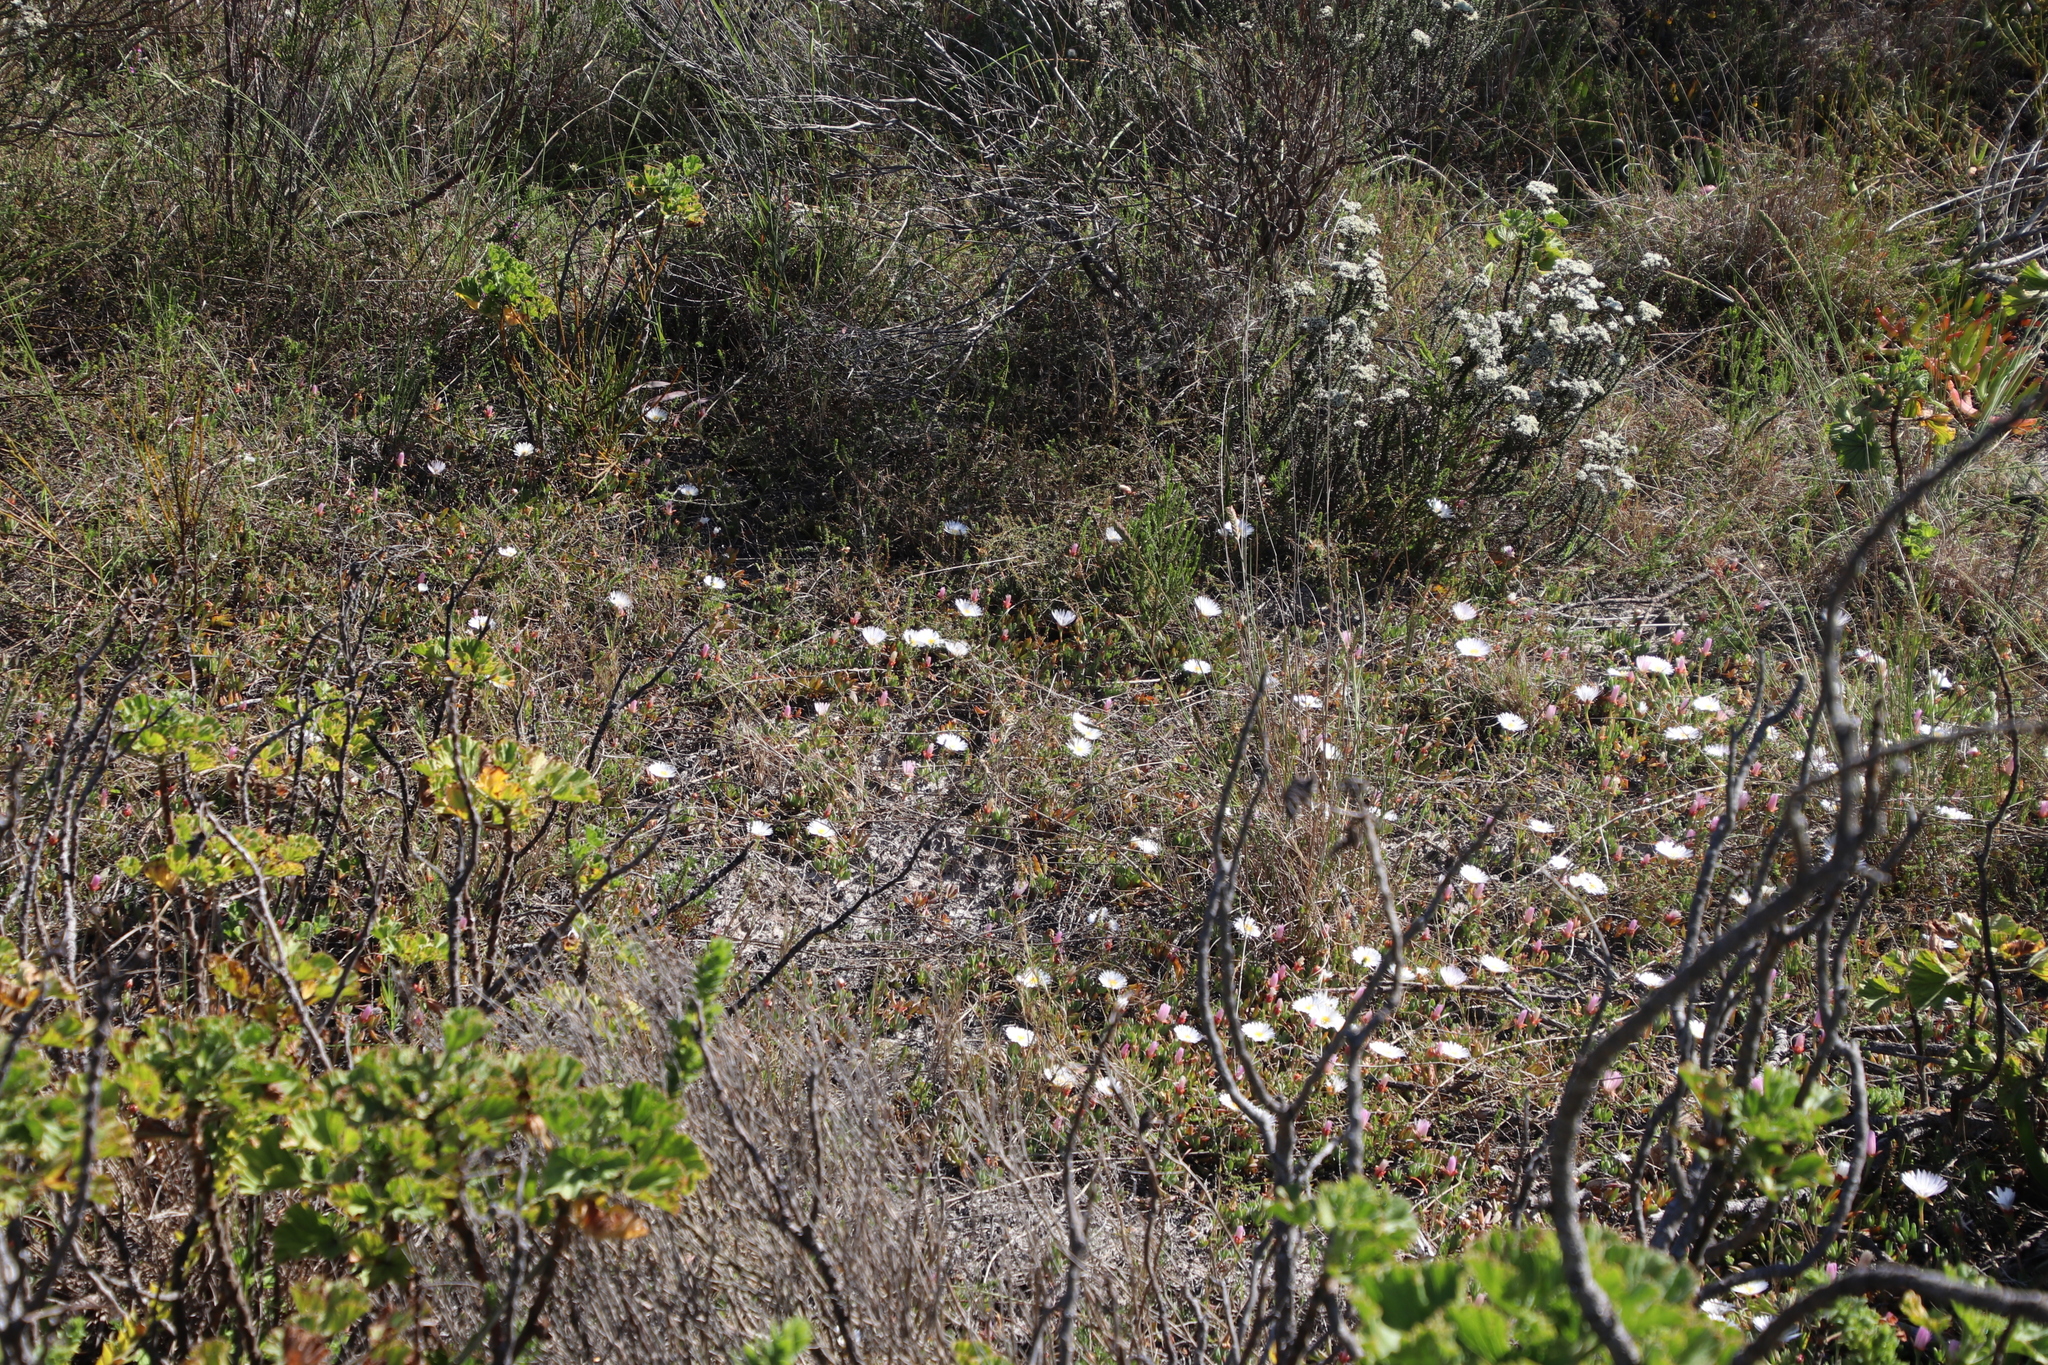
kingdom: Plantae
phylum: Tracheophyta
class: Magnoliopsida
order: Caryophyllales
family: Aizoaceae
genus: Lampranthus
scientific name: Lampranthus reptans
